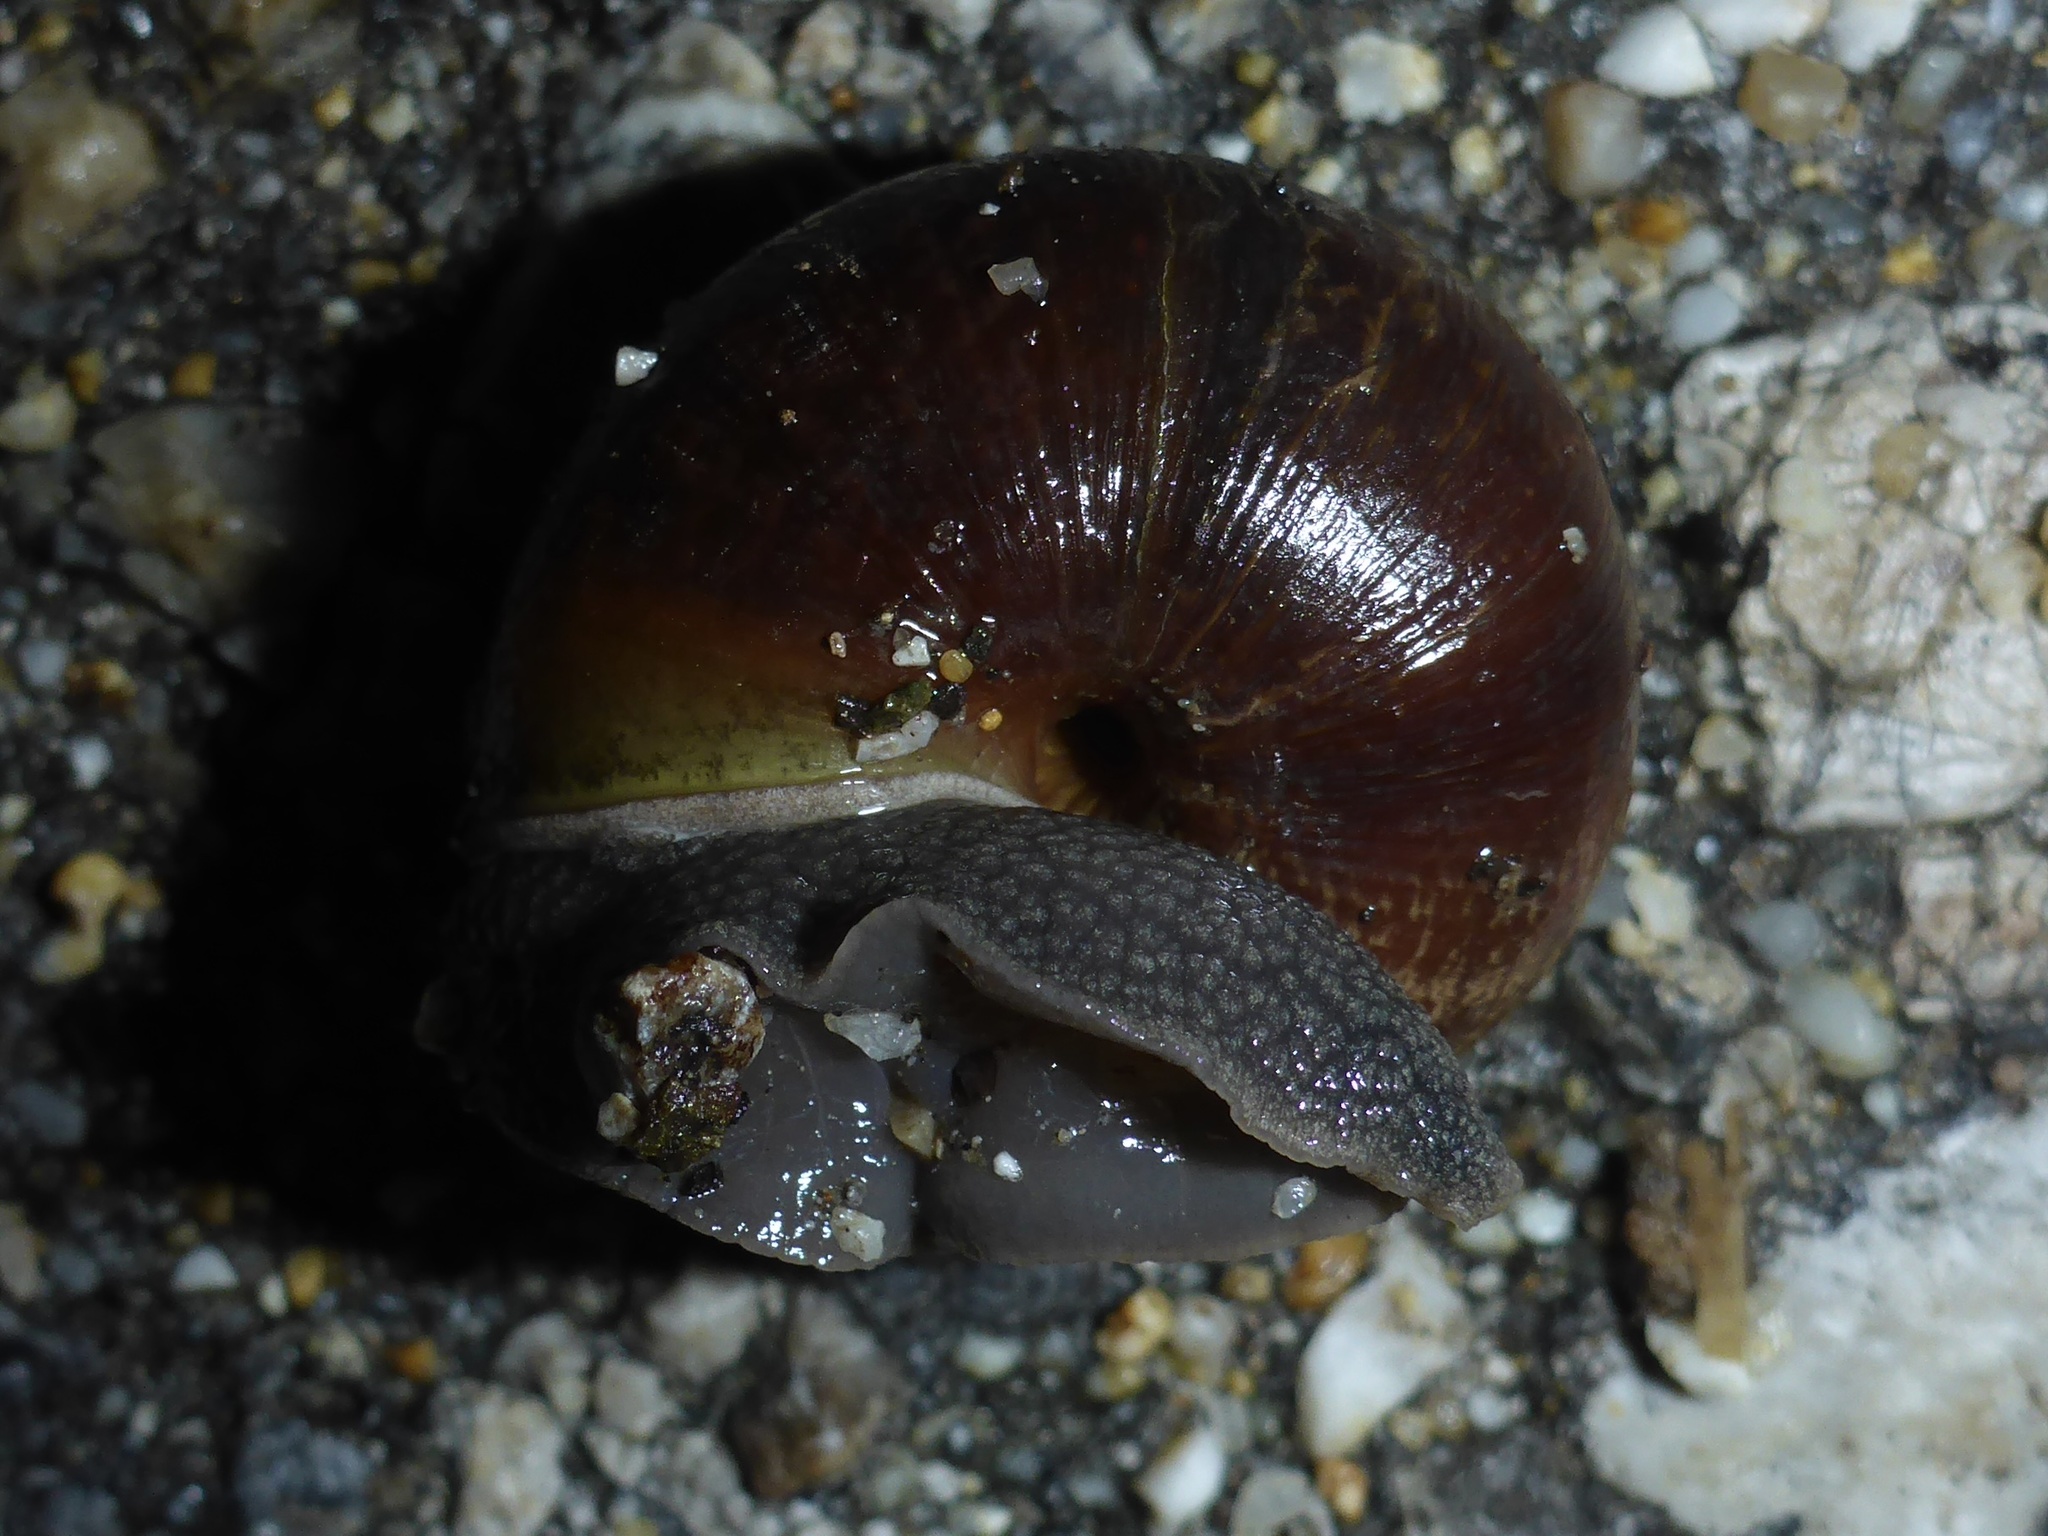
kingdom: Animalia
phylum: Mollusca
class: Gastropoda
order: Stylommatophora
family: Xanthonychidae
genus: Helminthoglypta
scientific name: Helminthoglypta arrosa
